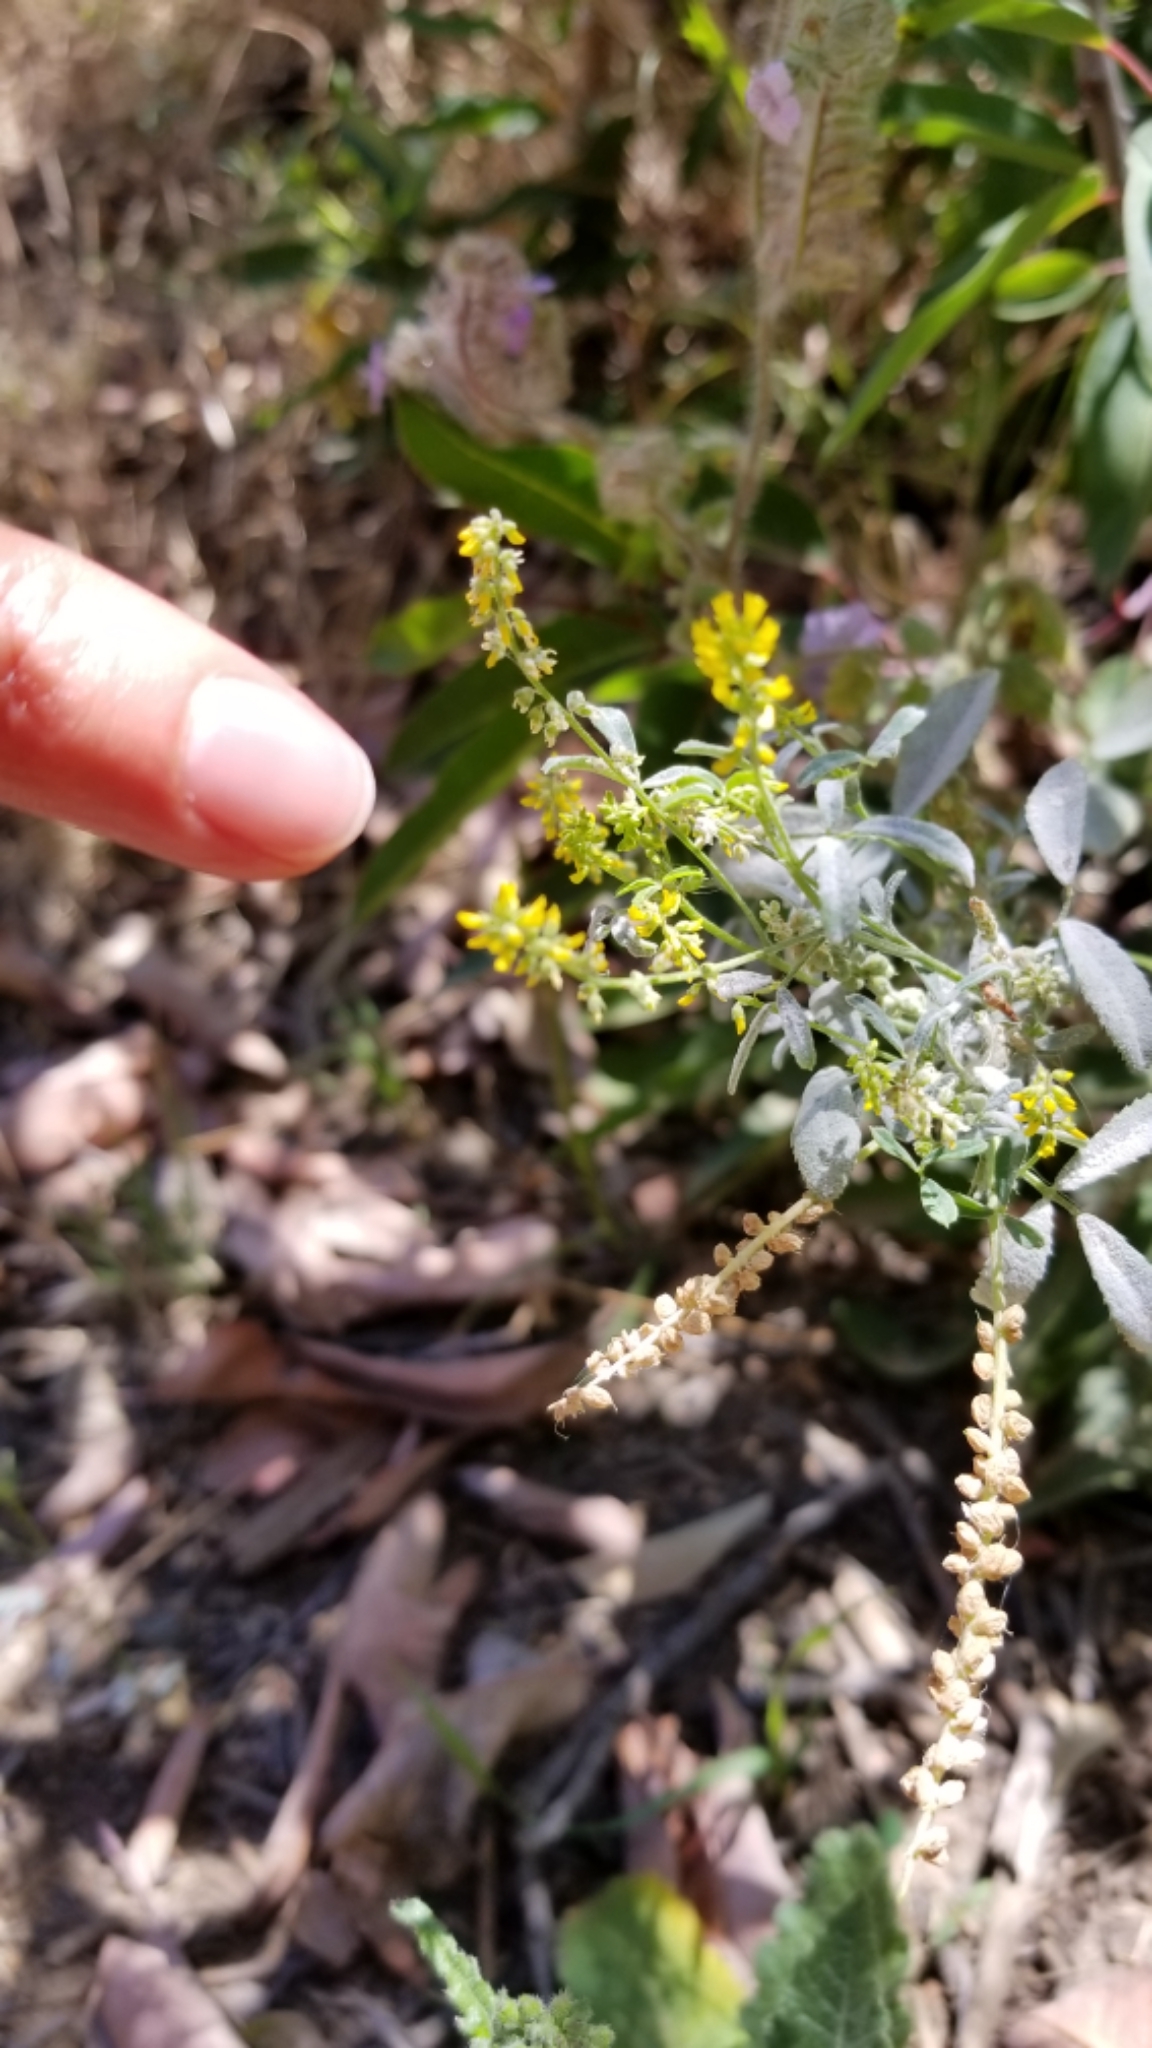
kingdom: Plantae
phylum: Tracheophyta
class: Magnoliopsida
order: Fabales
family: Fabaceae
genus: Melilotus
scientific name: Melilotus indicus
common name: Small melilot
